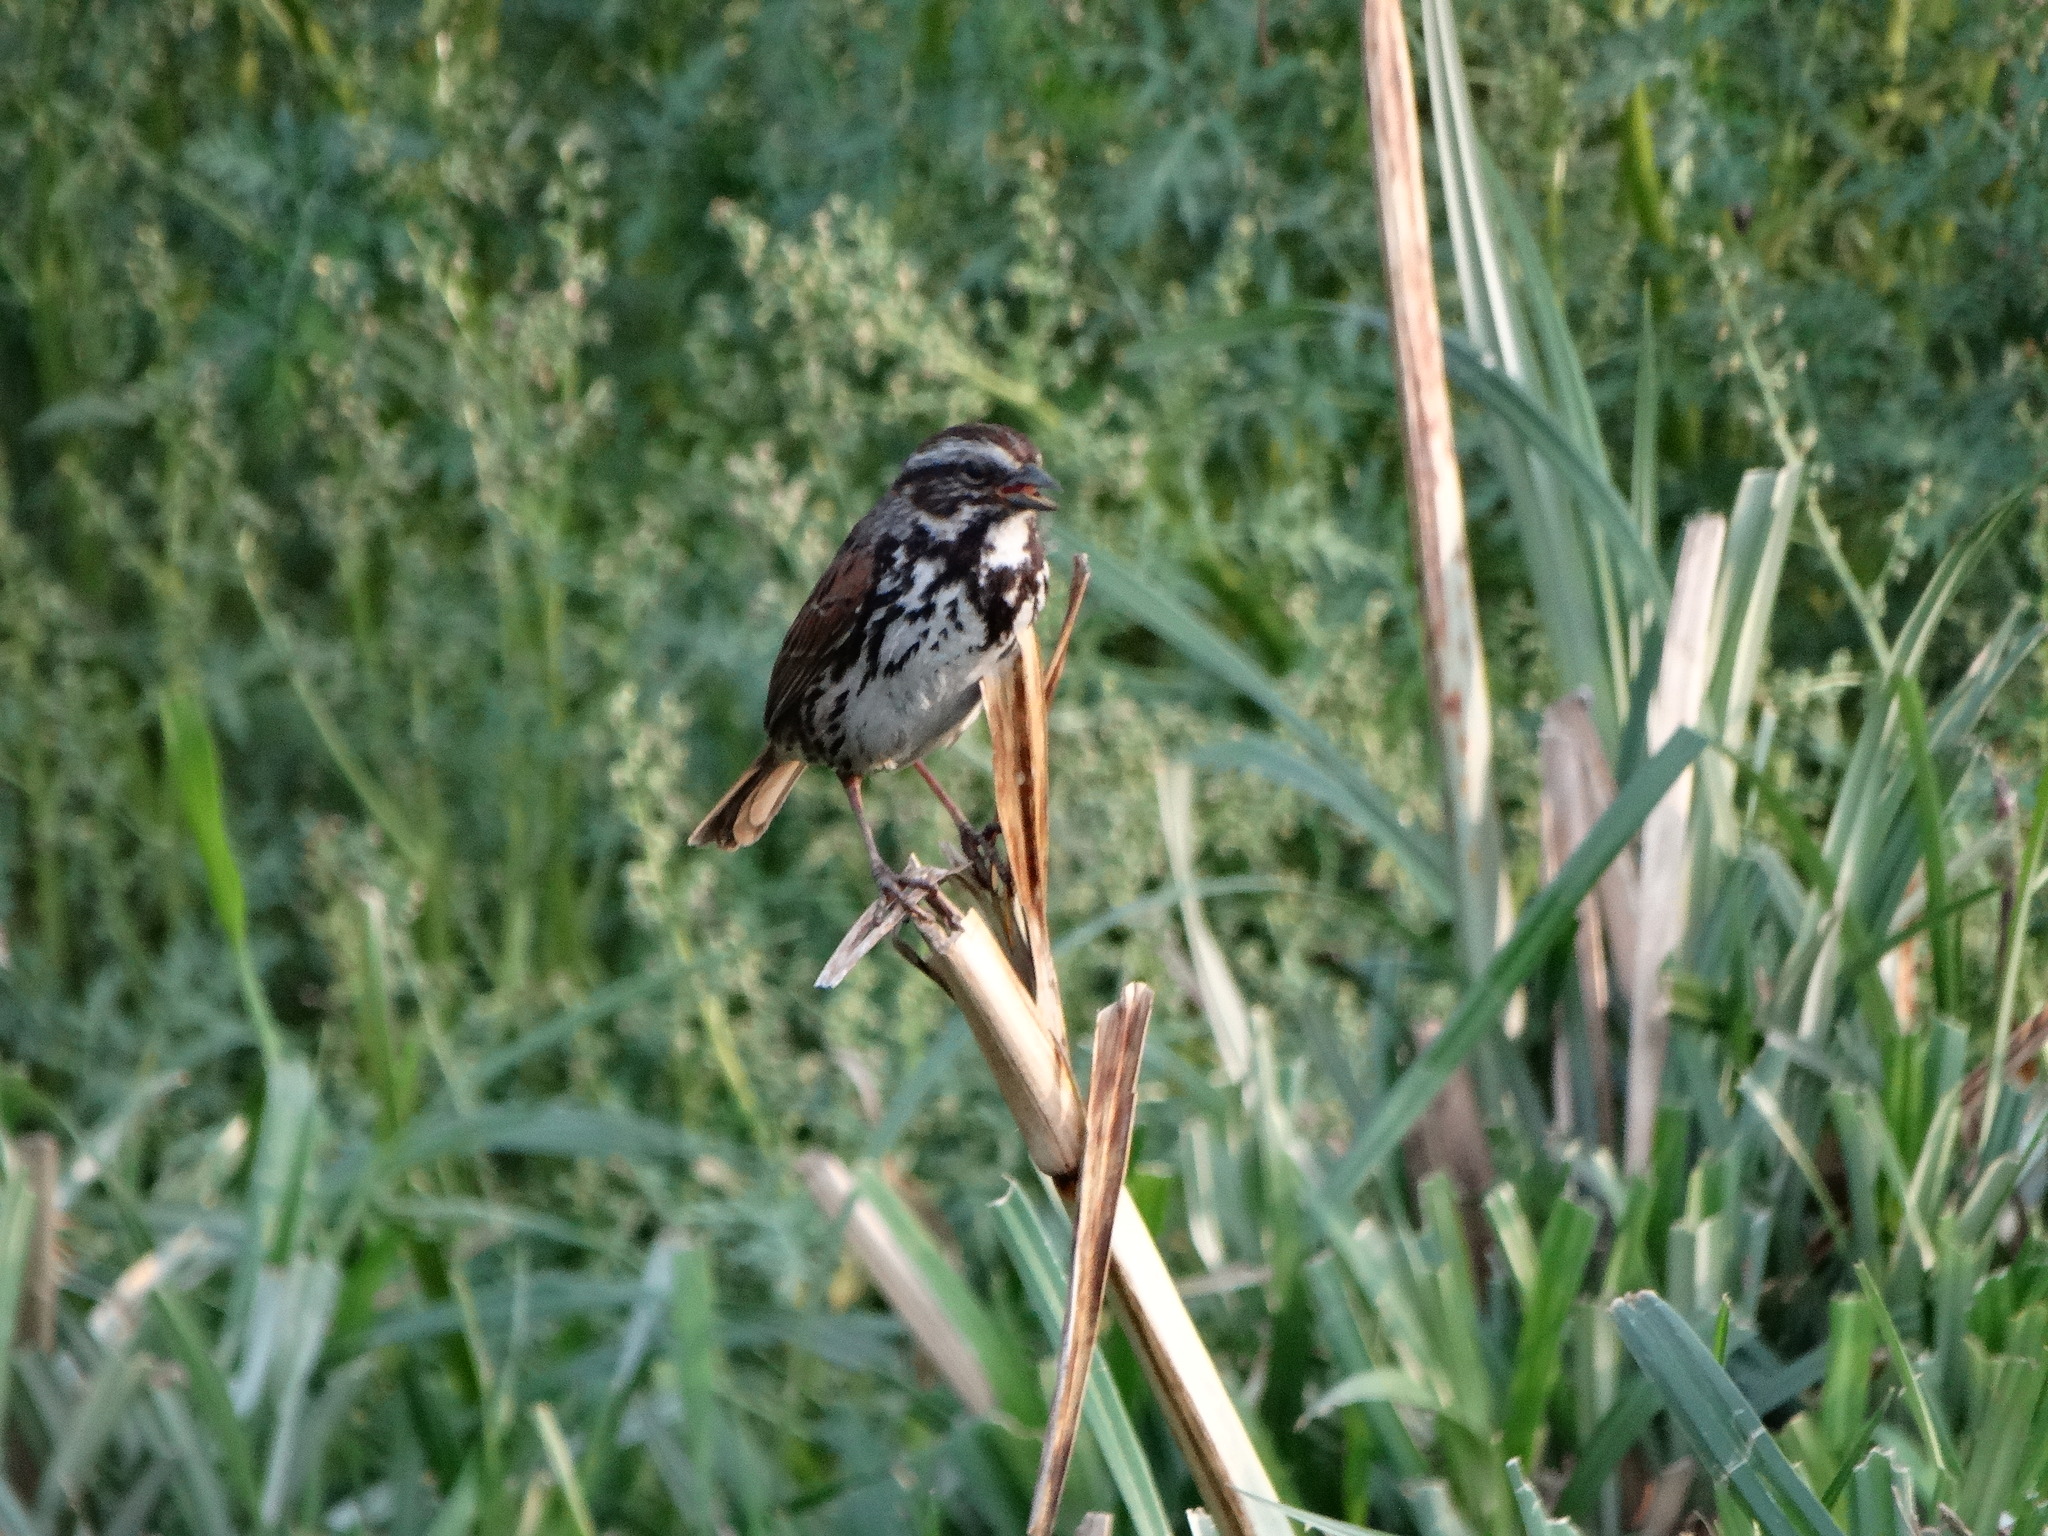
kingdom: Animalia
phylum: Chordata
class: Aves
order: Passeriformes
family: Passerellidae
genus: Melospiza
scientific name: Melospiza melodia
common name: Song sparrow
